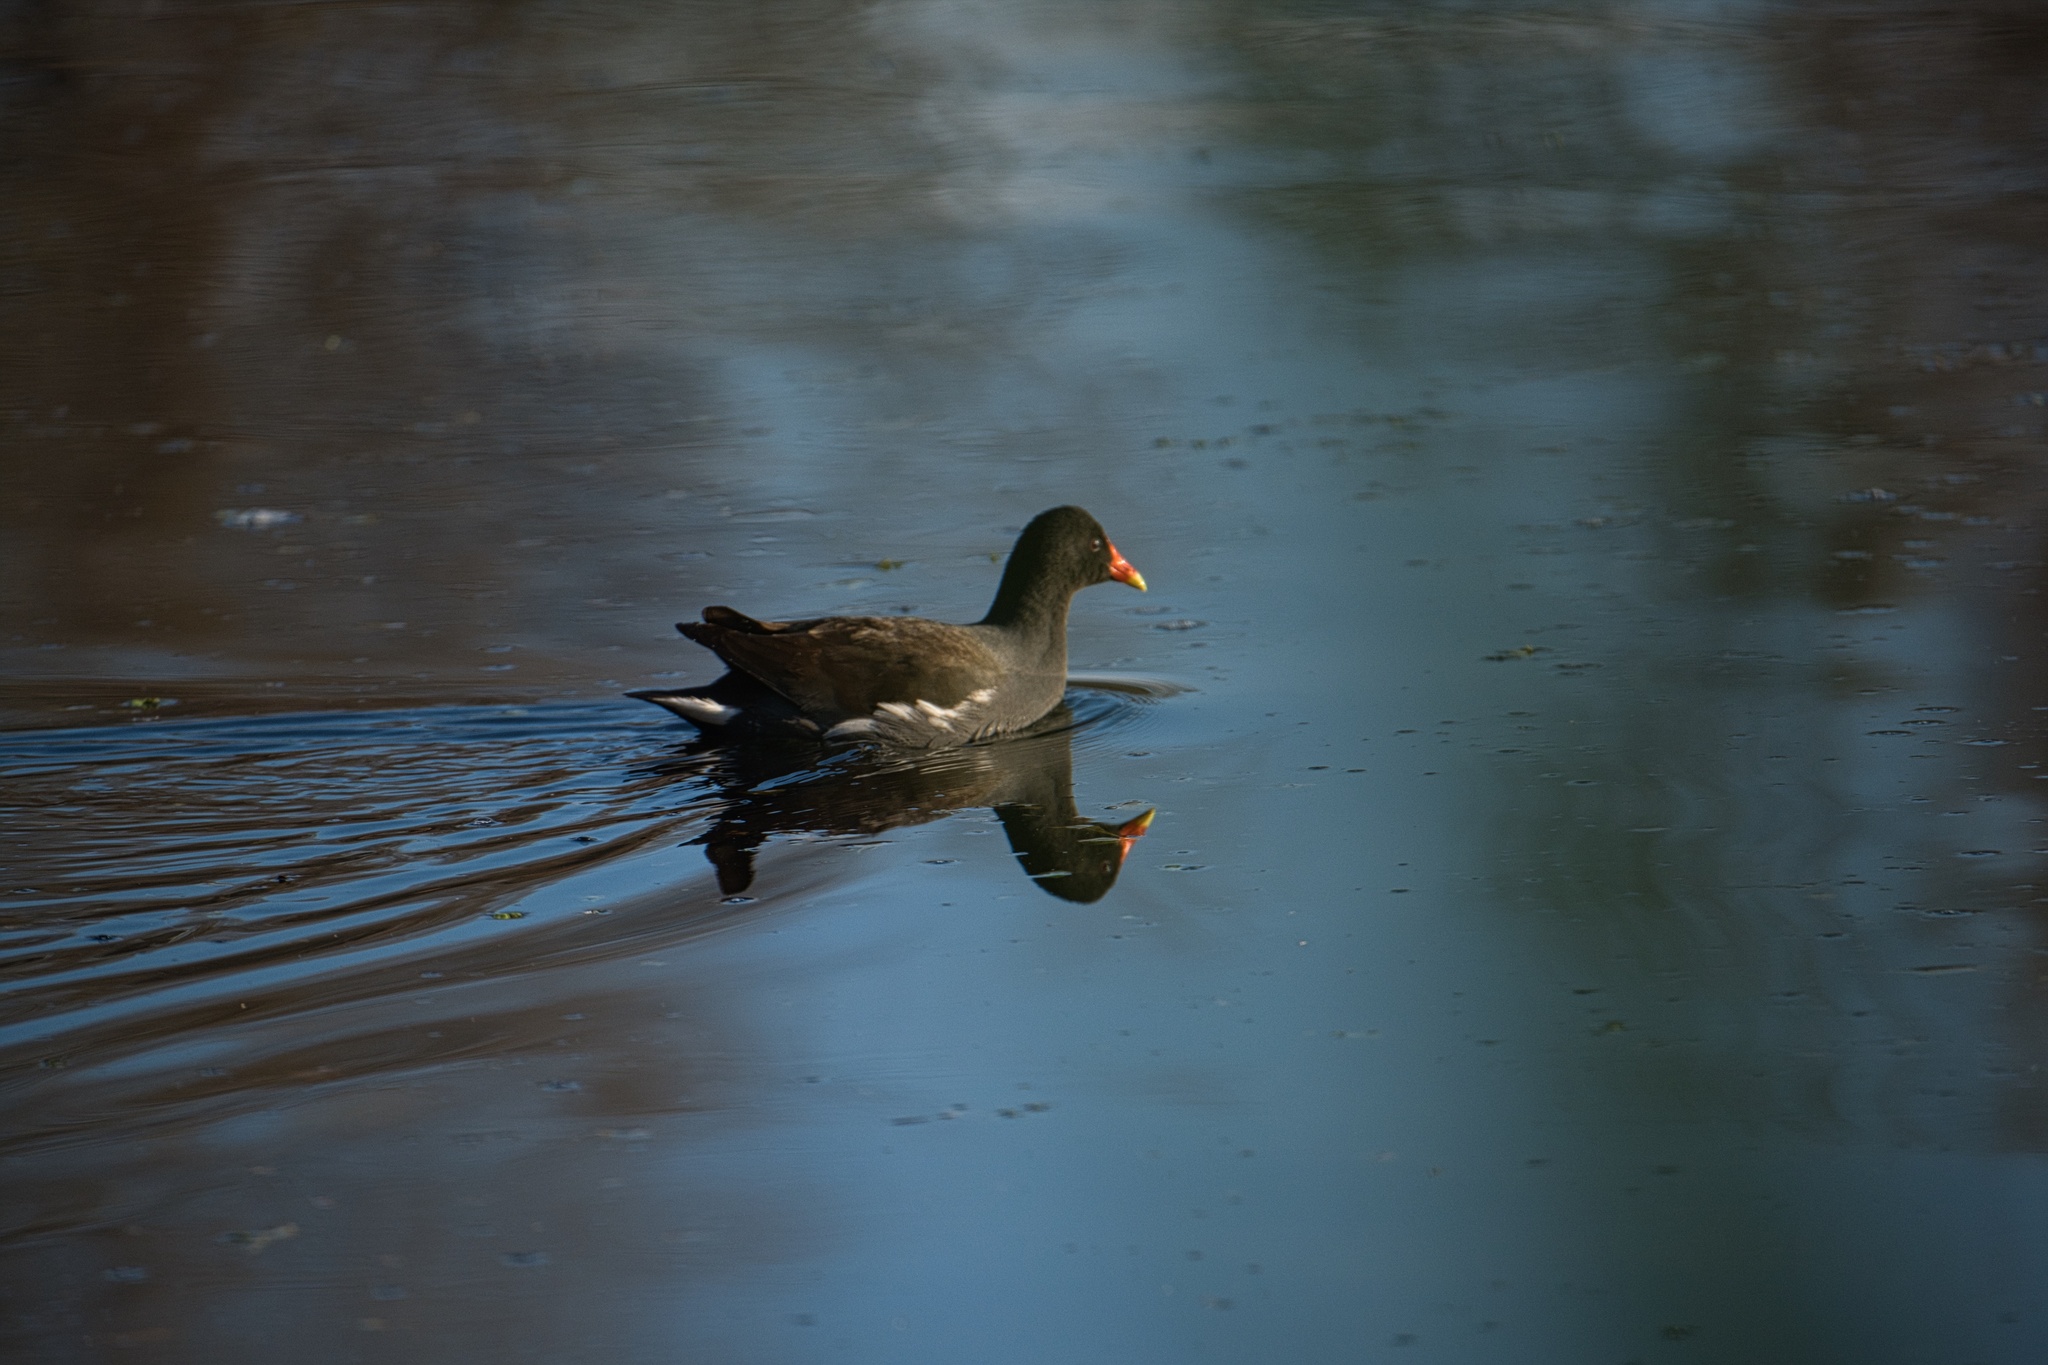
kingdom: Animalia
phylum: Chordata
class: Aves
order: Gruiformes
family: Rallidae
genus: Gallinula
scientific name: Gallinula chloropus
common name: Common moorhen
